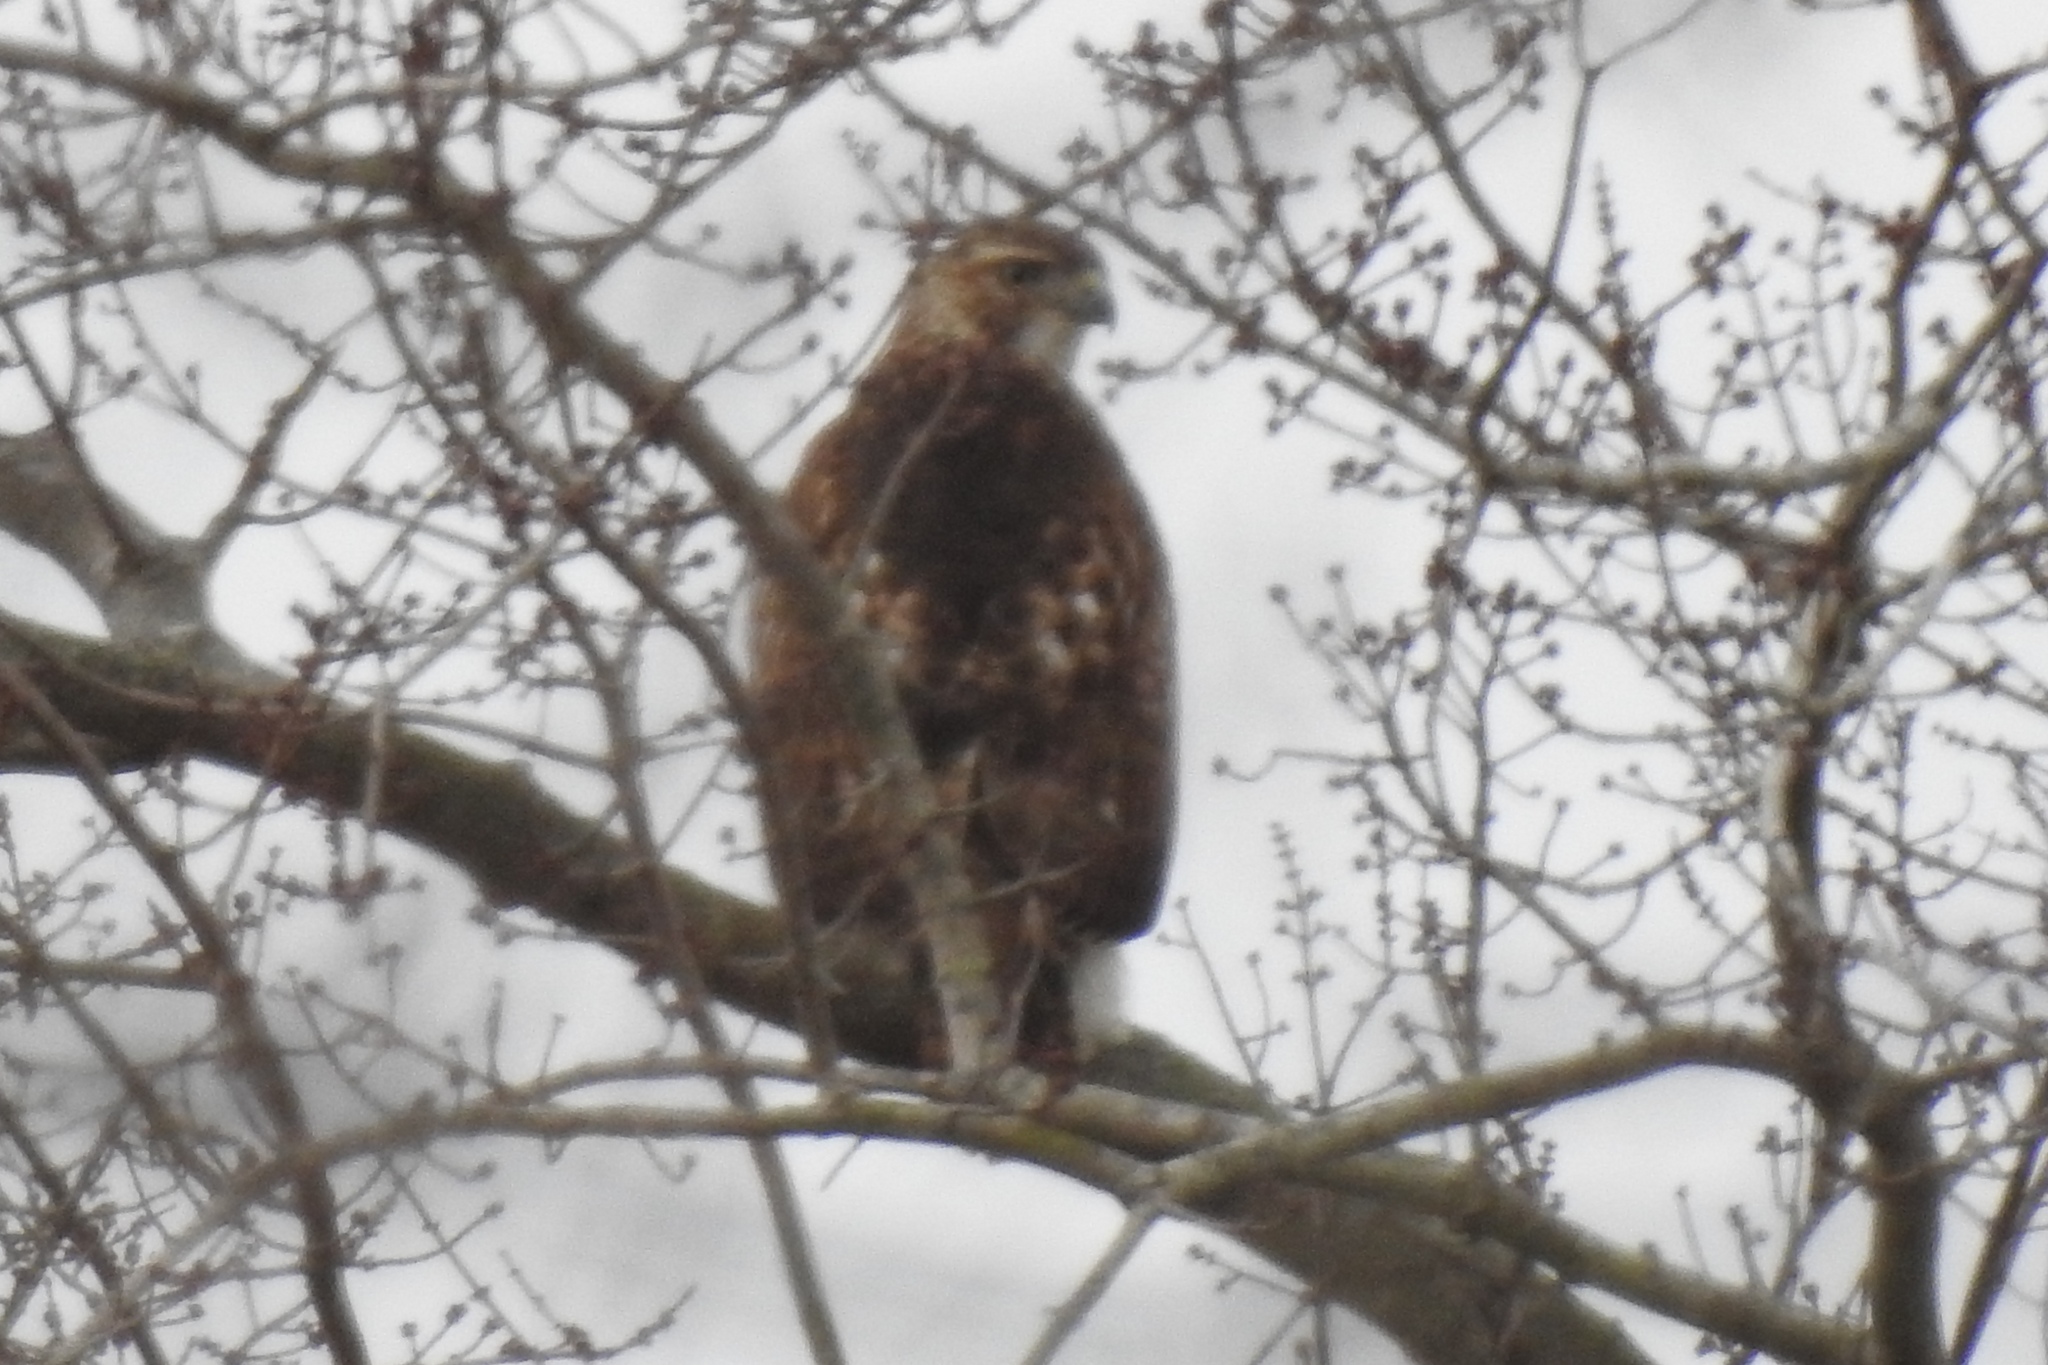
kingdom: Animalia
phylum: Chordata
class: Aves
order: Accipitriformes
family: Accipitridae
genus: Buteo
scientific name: Buteo jamaicensis
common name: Red-tailed hawk
